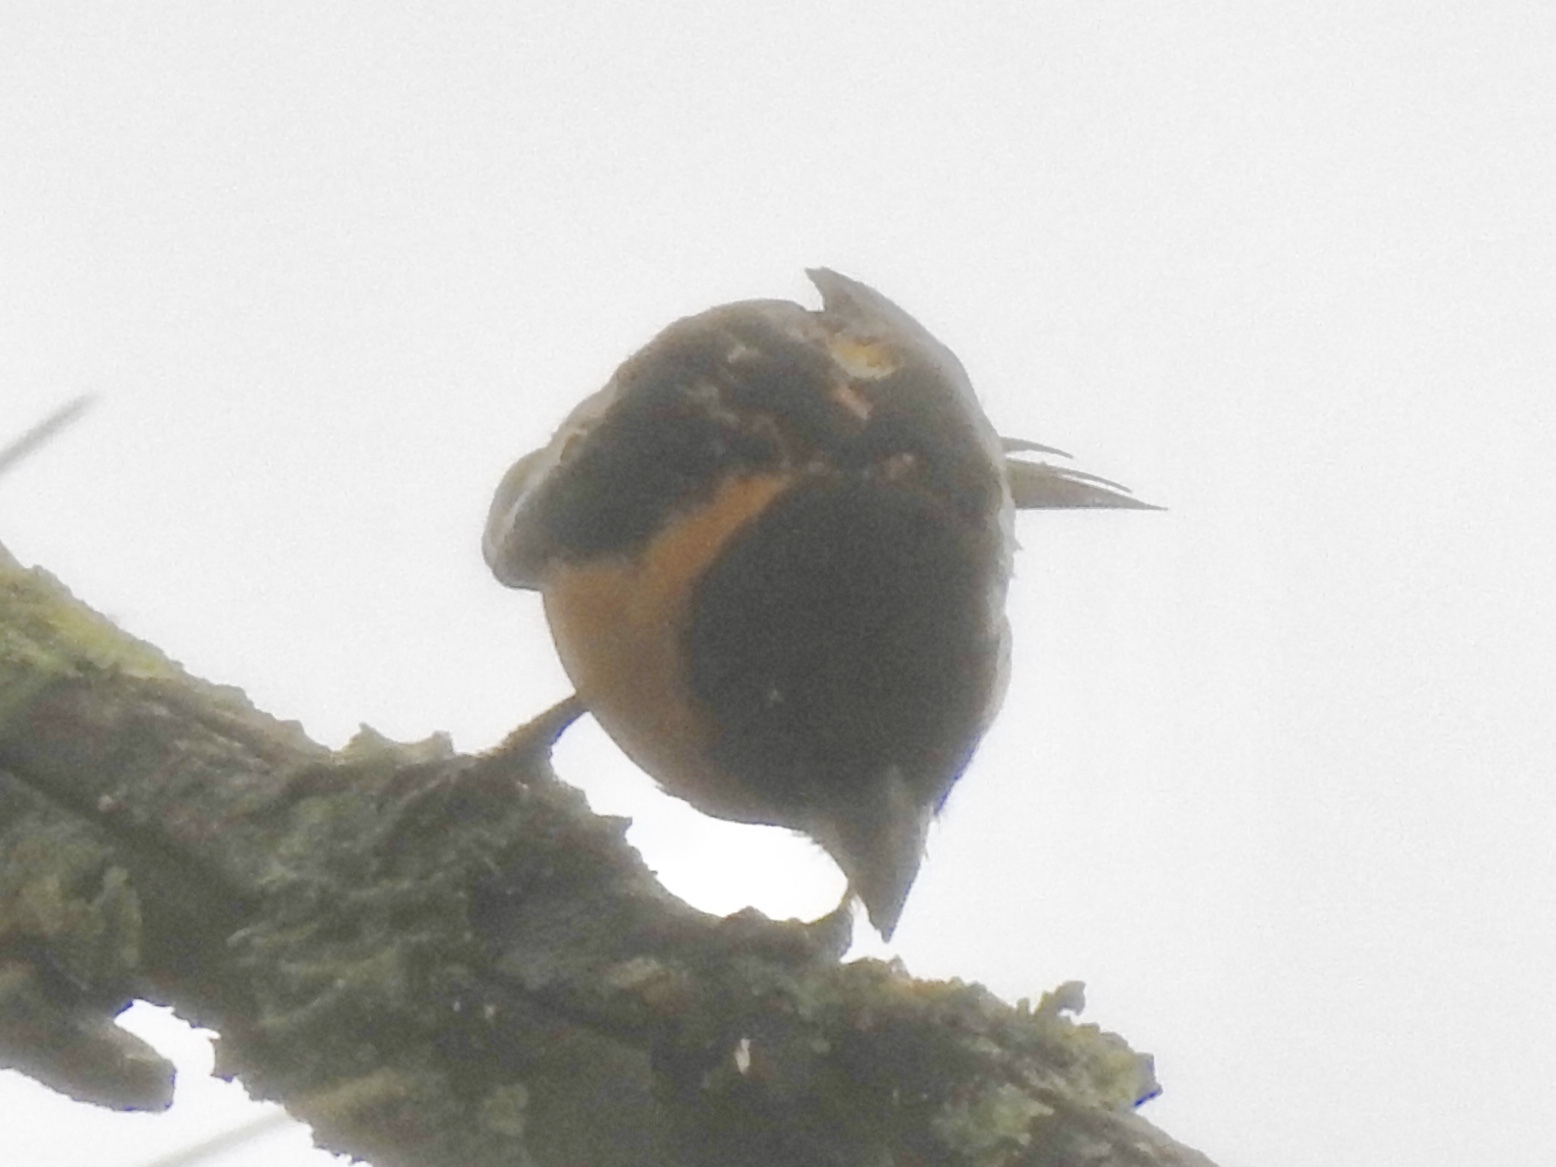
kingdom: Animalia
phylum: Chordata
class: Aves
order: Passeriformes
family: Cardinalidae
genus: Pheucticus
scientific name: Pheucticus melanocephalus
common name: Black-headed grosbeak
